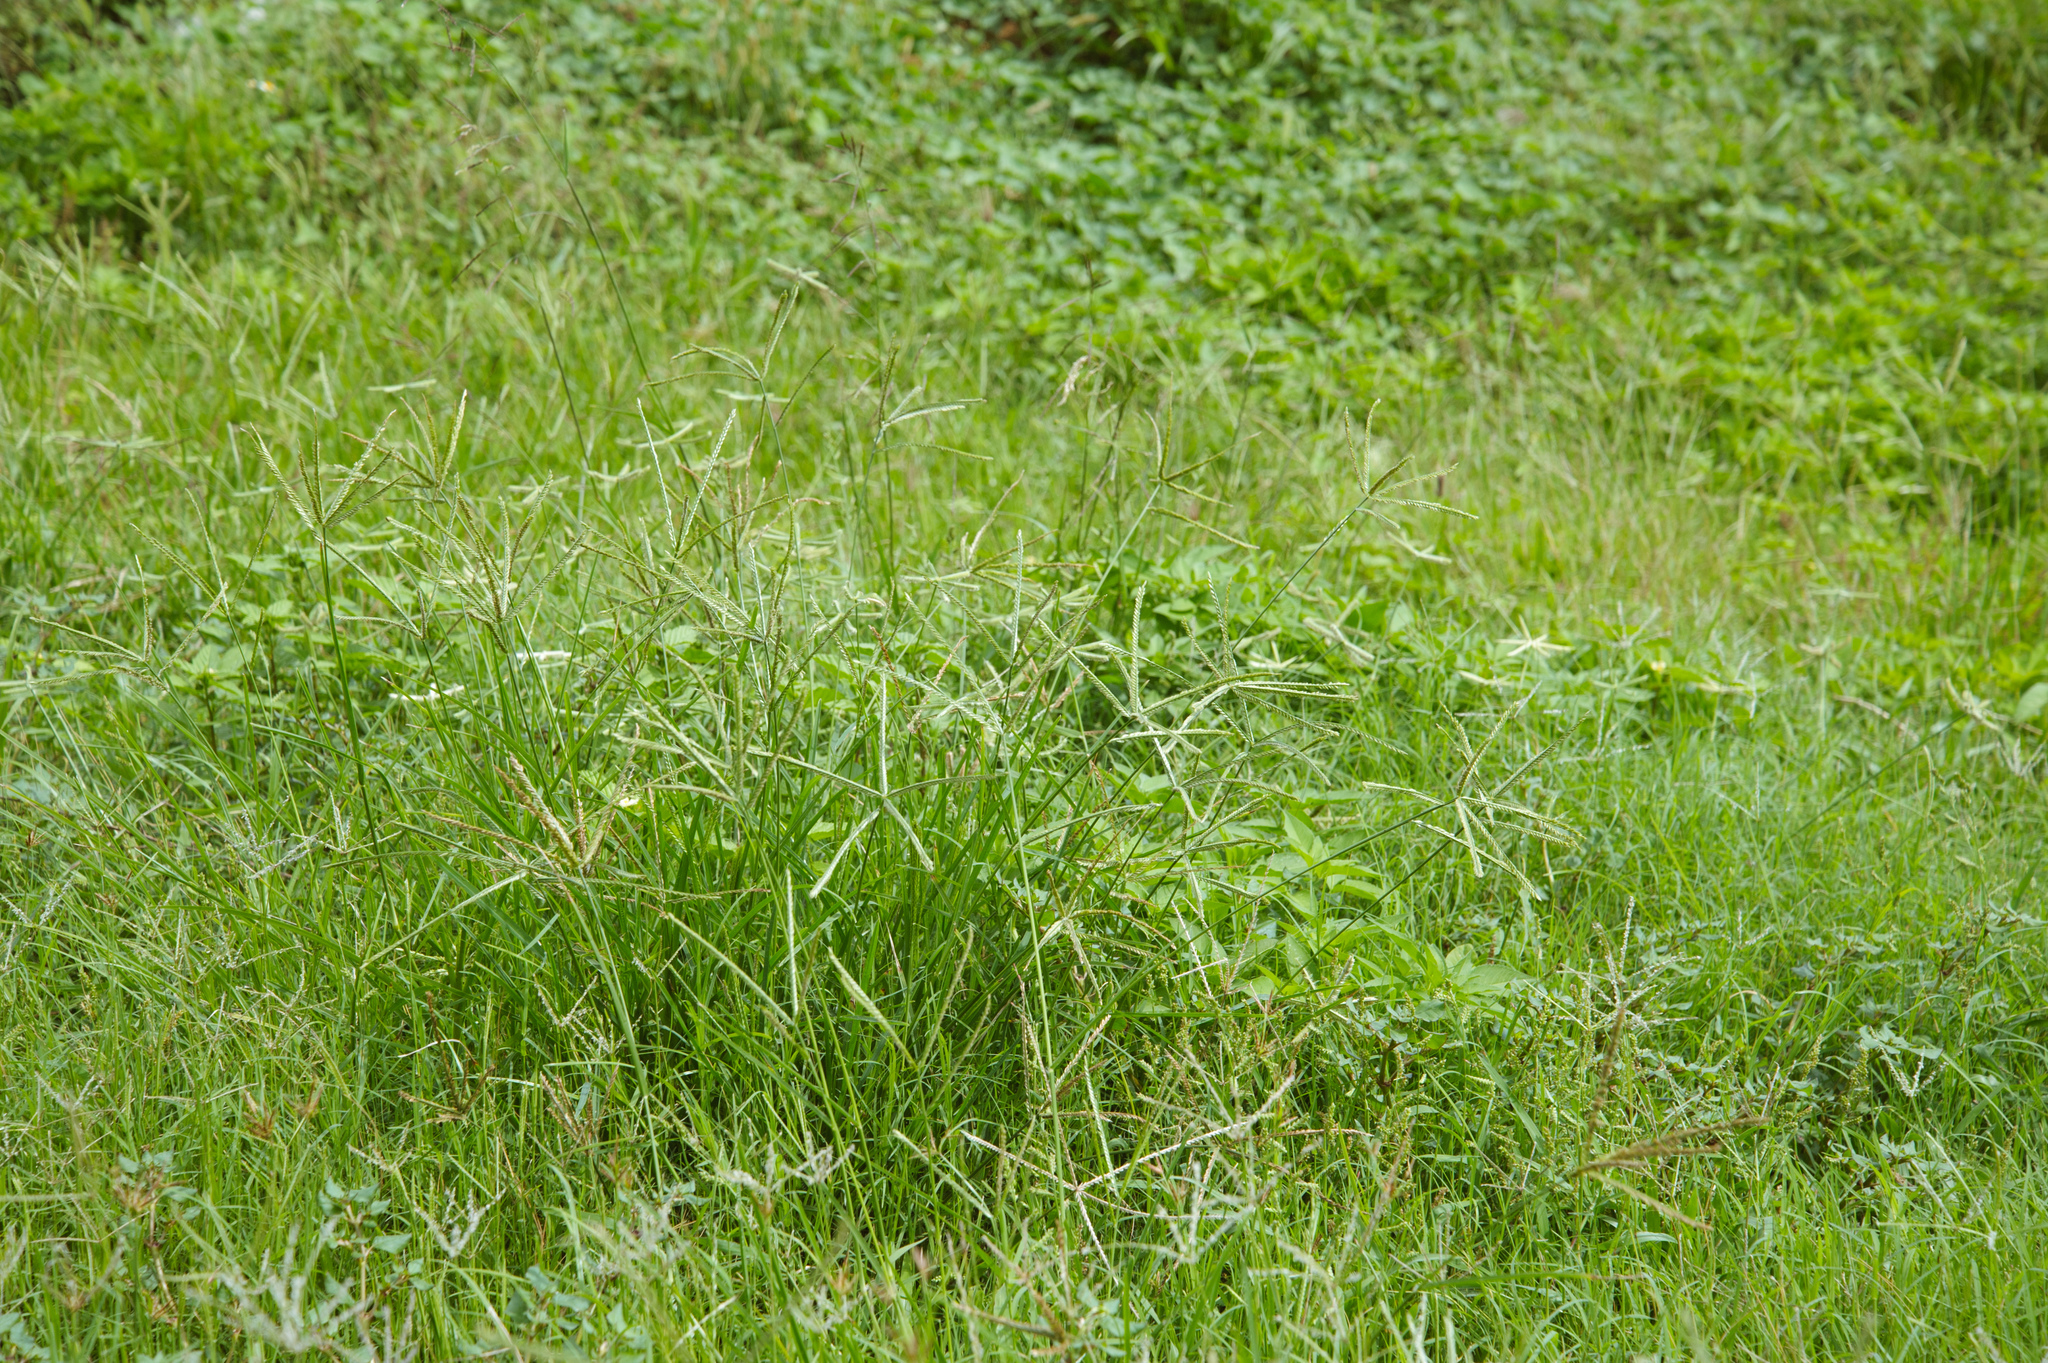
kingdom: Plantae
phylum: Tracheophyta
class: Liliopsida
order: Poales
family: Poaceae
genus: Eleusine
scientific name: Eleusine indica
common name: Yard-grass
